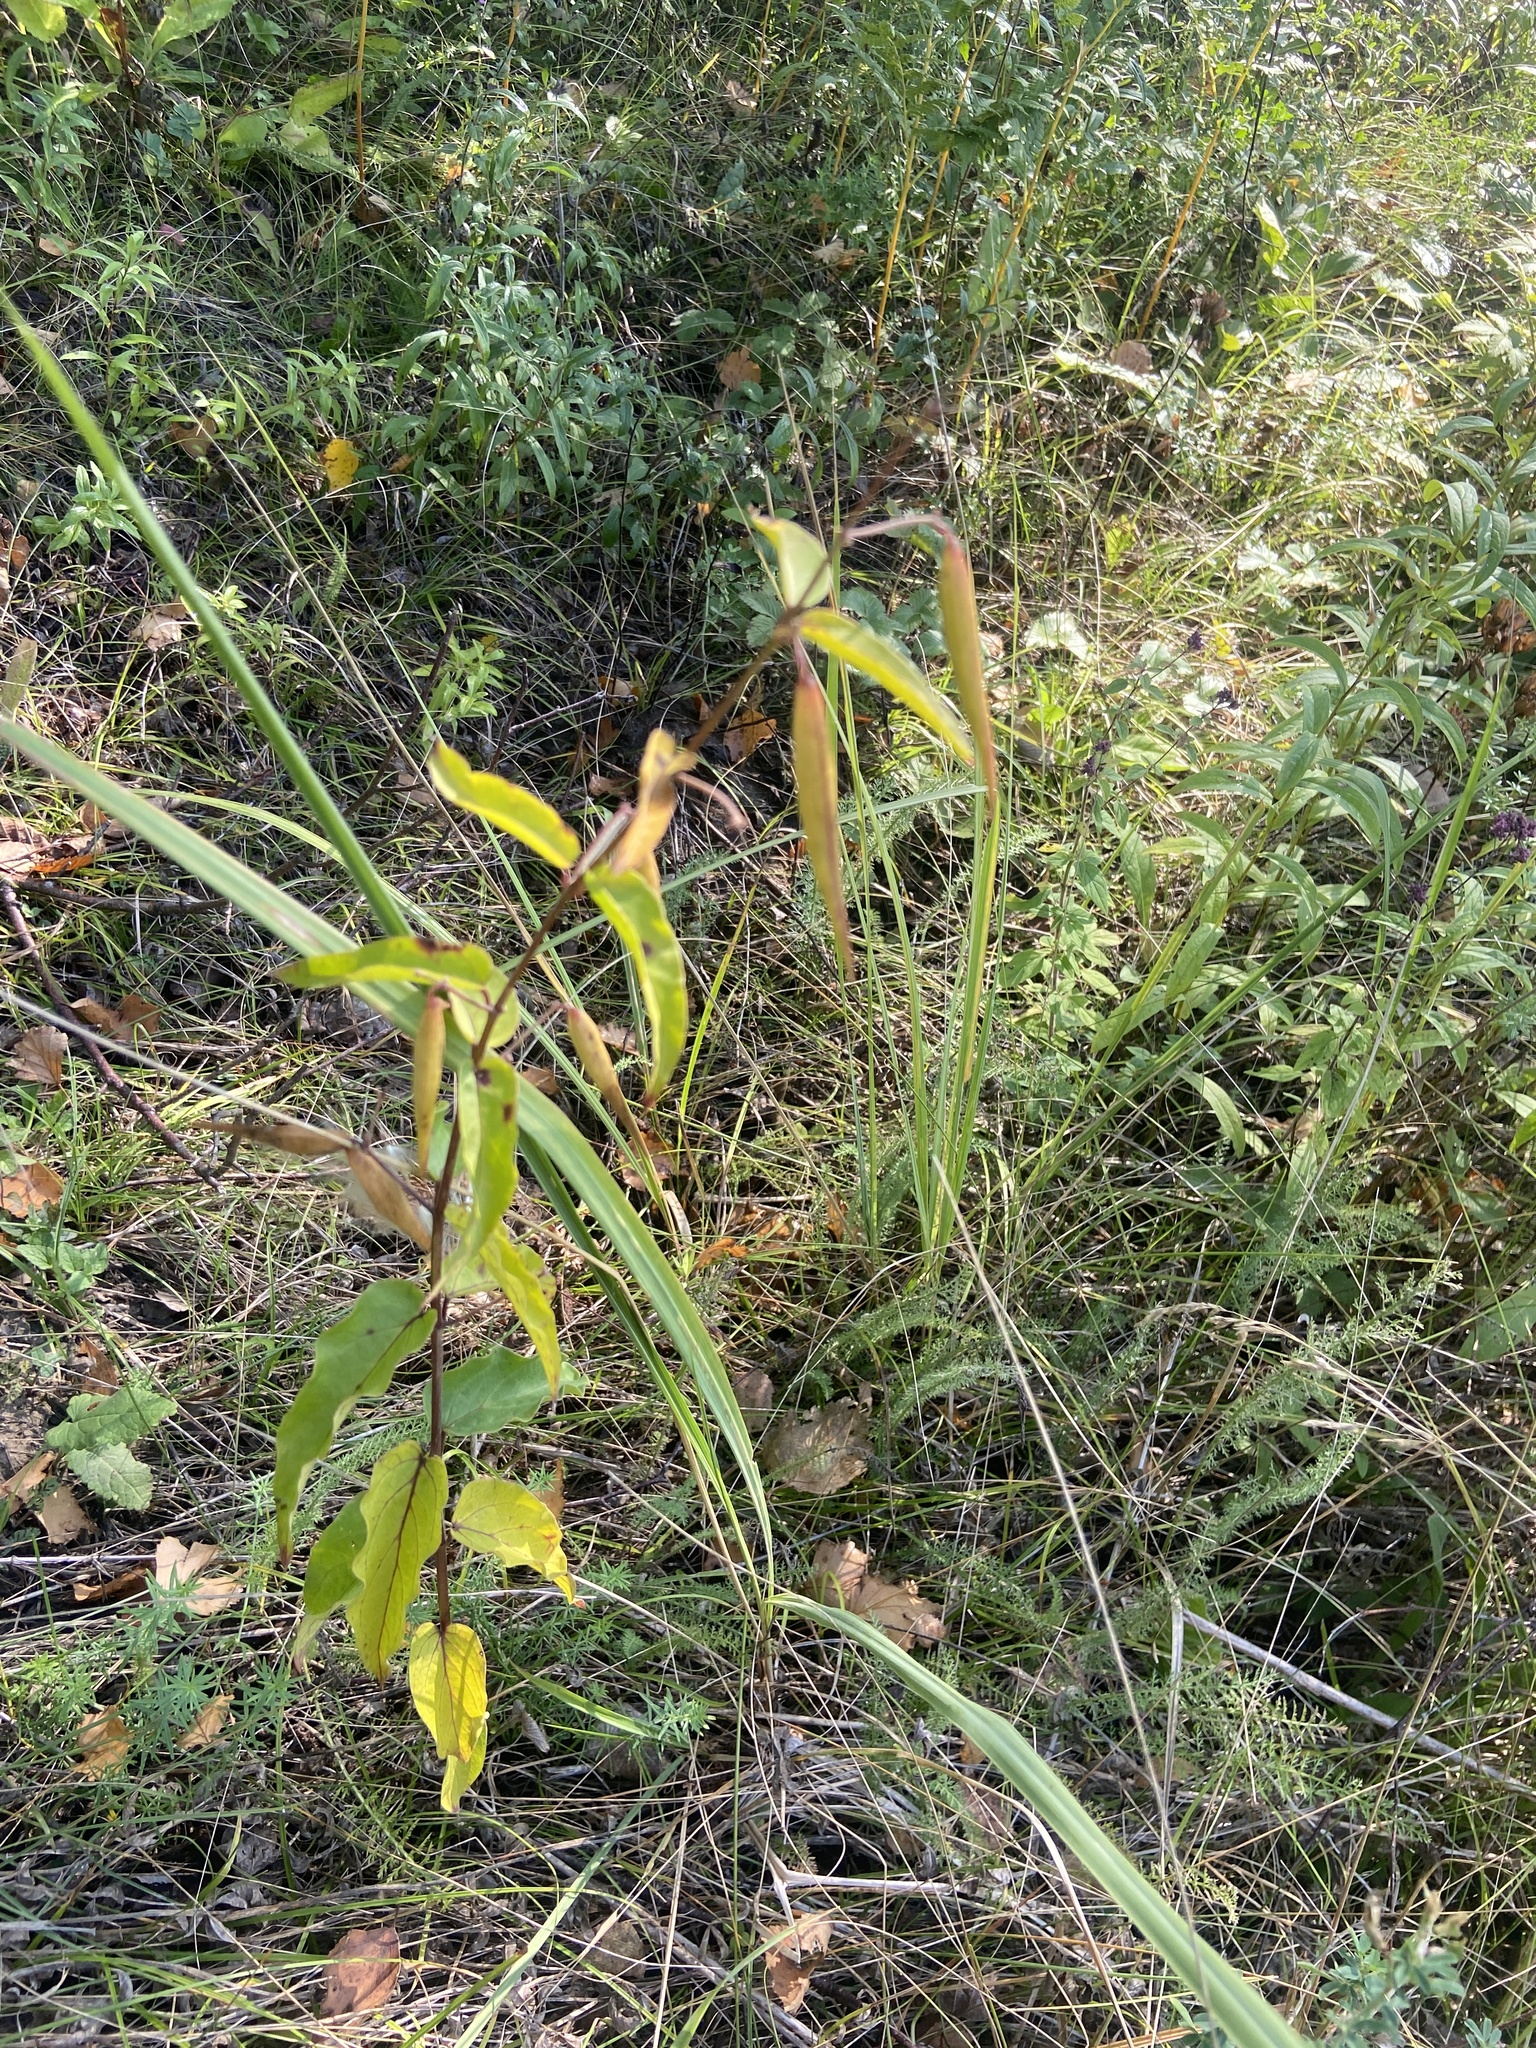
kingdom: Plantae
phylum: Tracheophyta
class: Magnoliopsida
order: Gentianales
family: Apocynaceae
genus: Vincetoxicum
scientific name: Vincetoxicum hirundinaria
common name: White swallowwort
